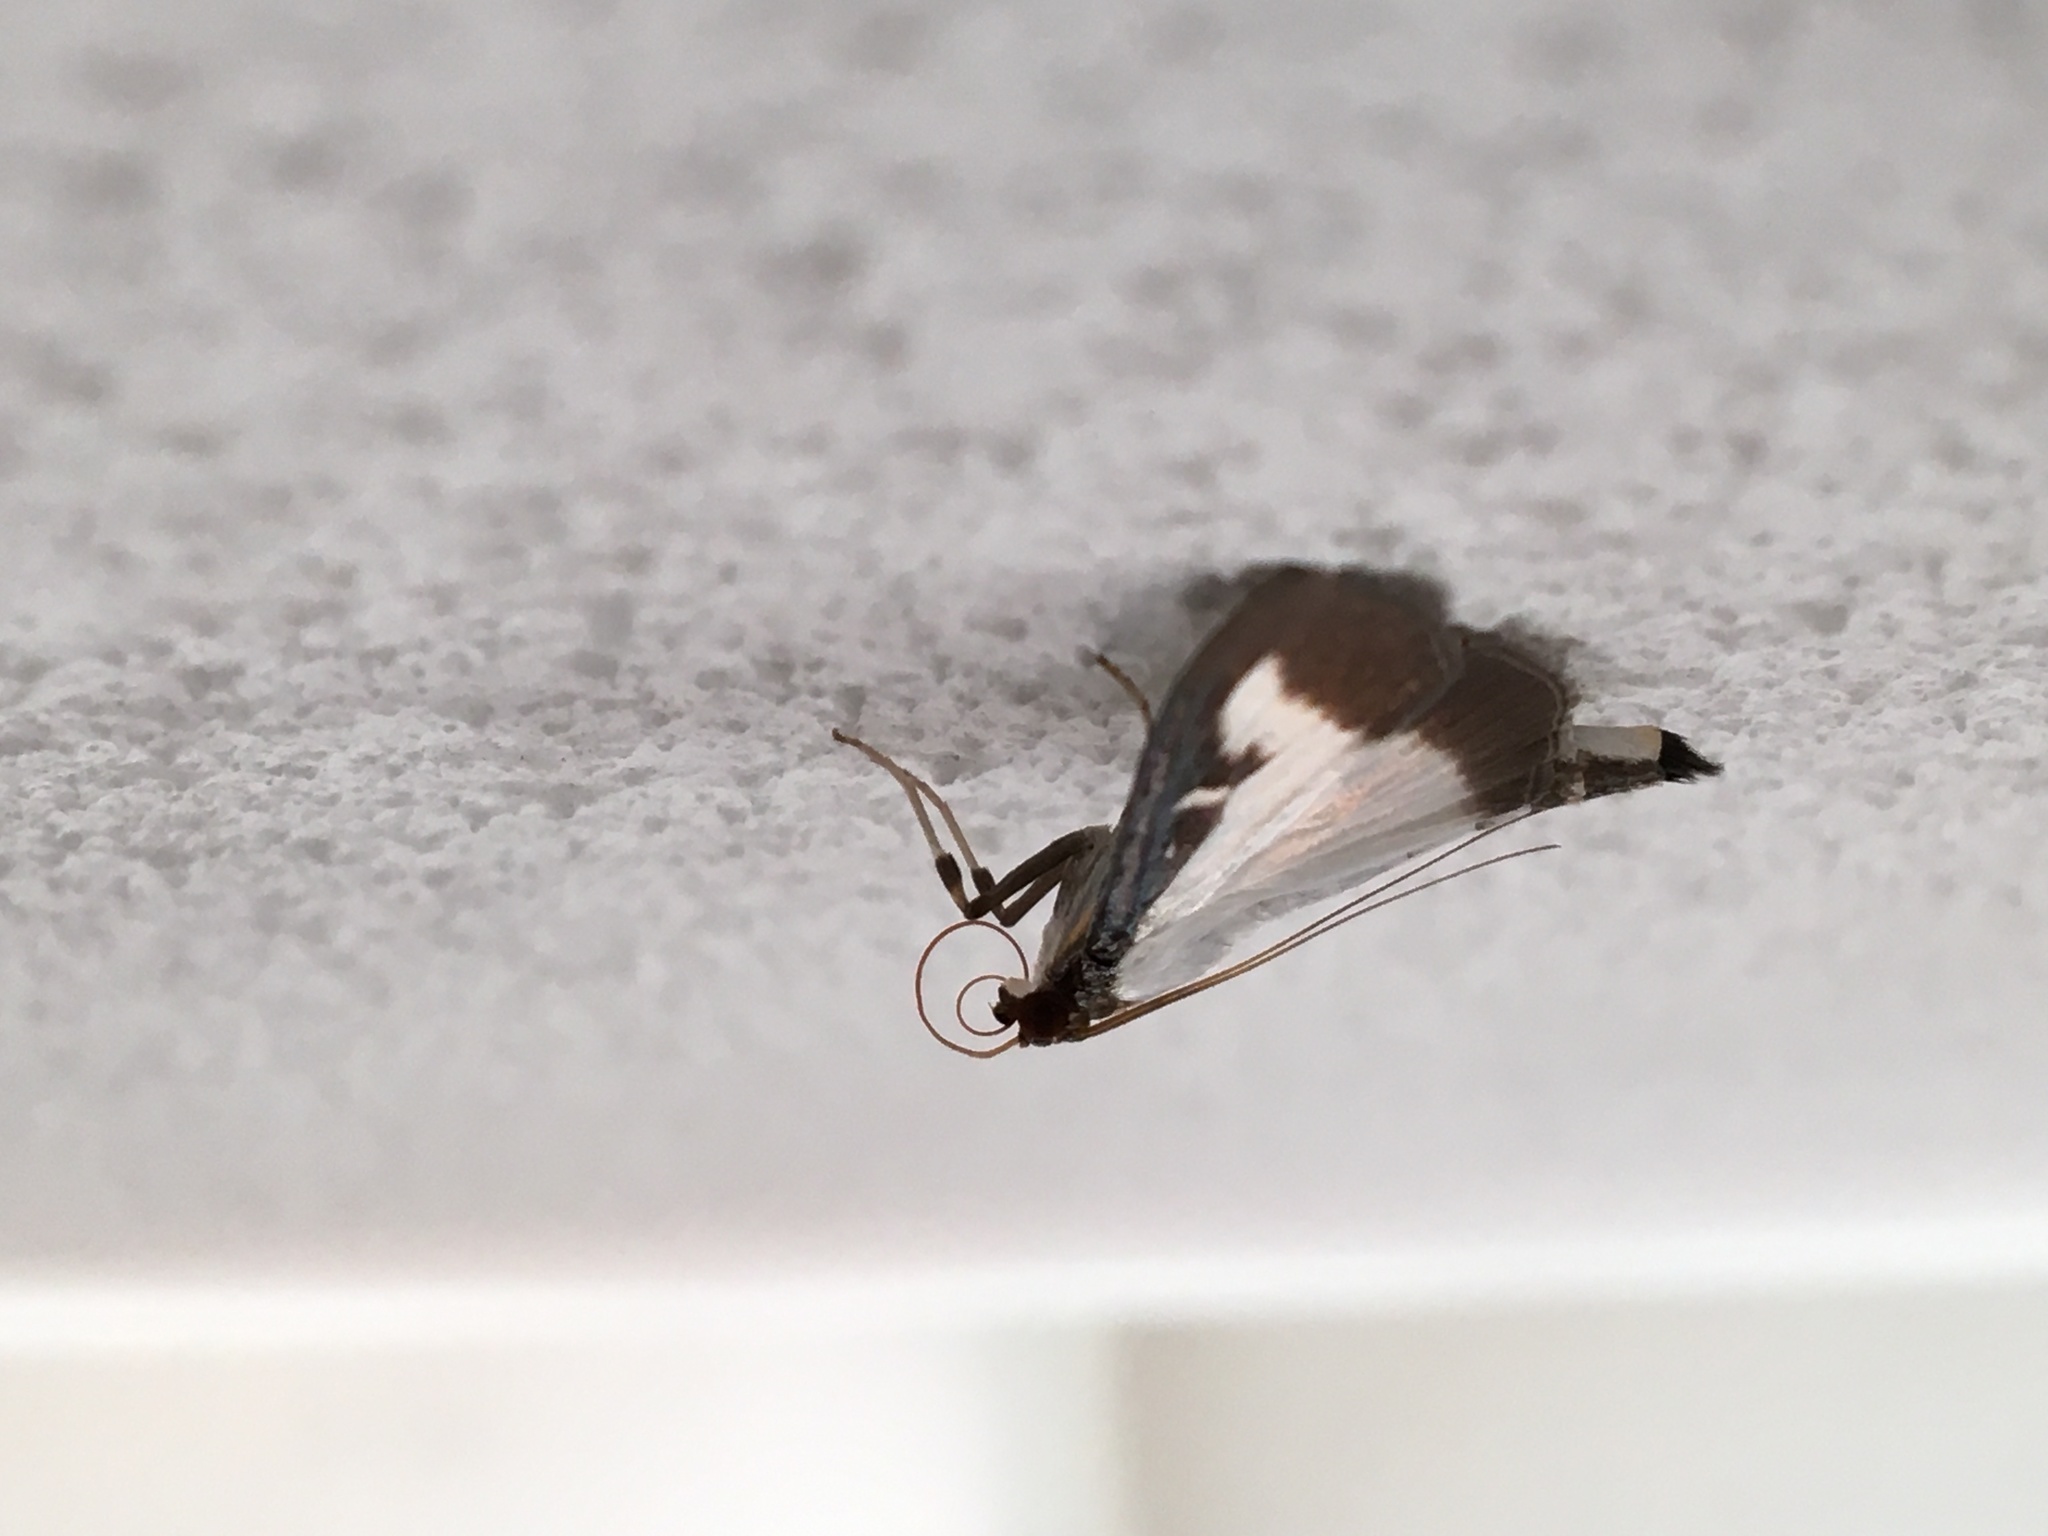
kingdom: Animalia
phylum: Arthropoda
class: Insecta
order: Lepidoptera
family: Crambidae
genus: Cydalima
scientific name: Cydalima perspectalis
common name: Box tree moth
